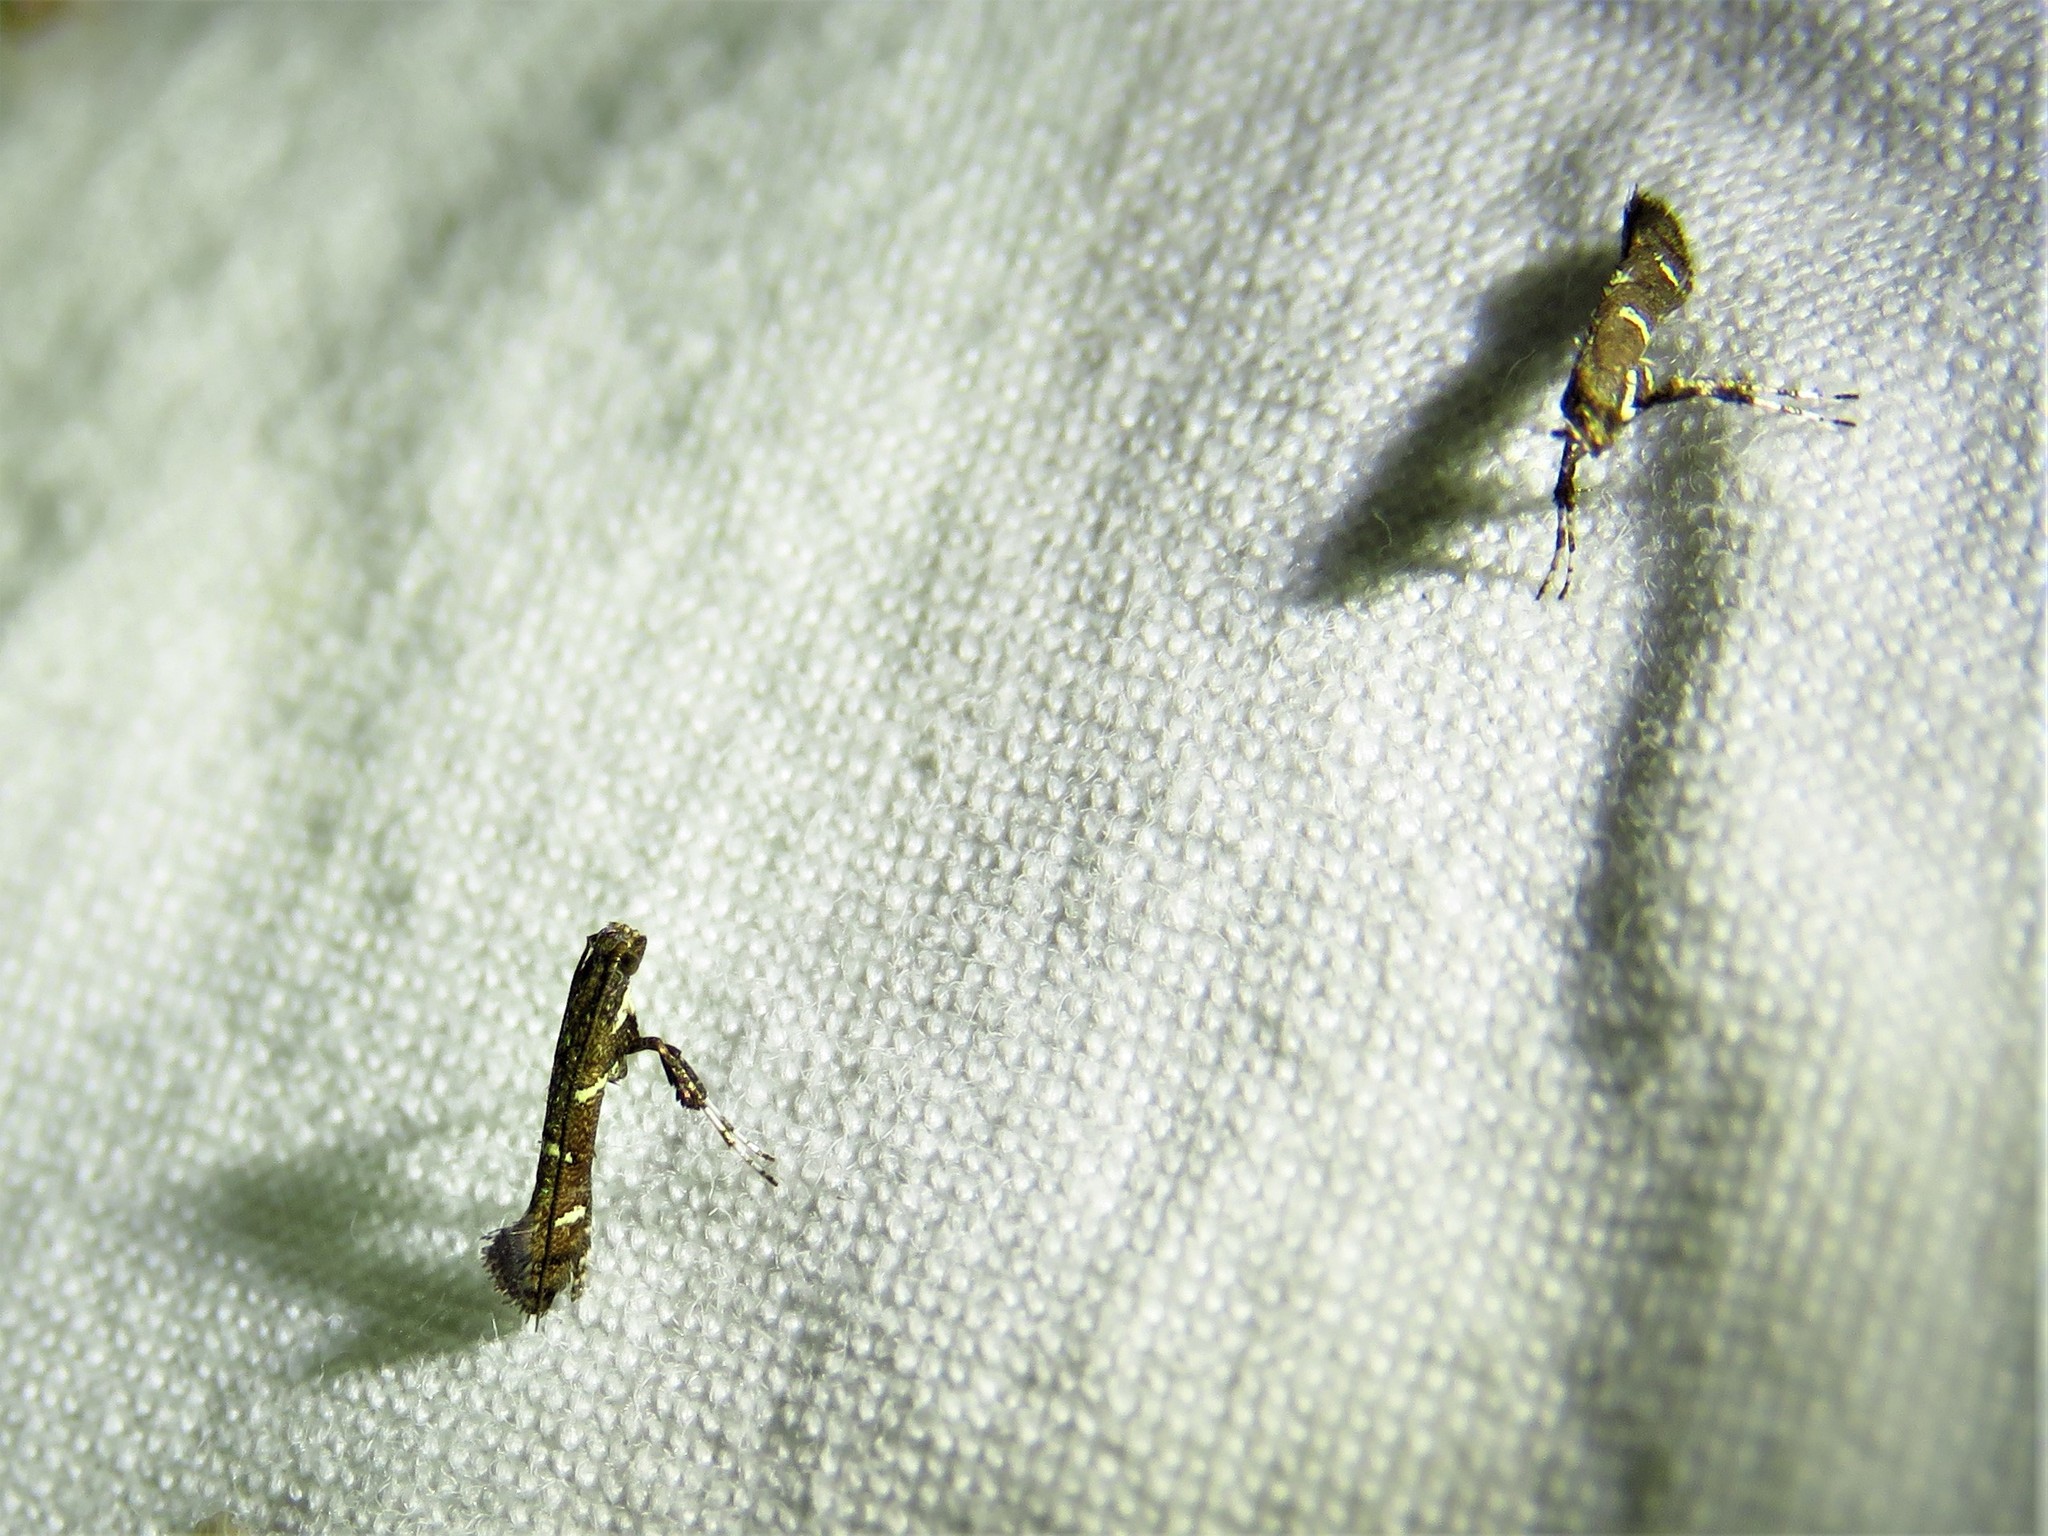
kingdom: Animalia
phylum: Arthropoda
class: Insecta
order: Lepidoptera
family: Gracillariidae
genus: Caloptilia
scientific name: Caloptilia triadicae
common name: Tallow leaf roller
